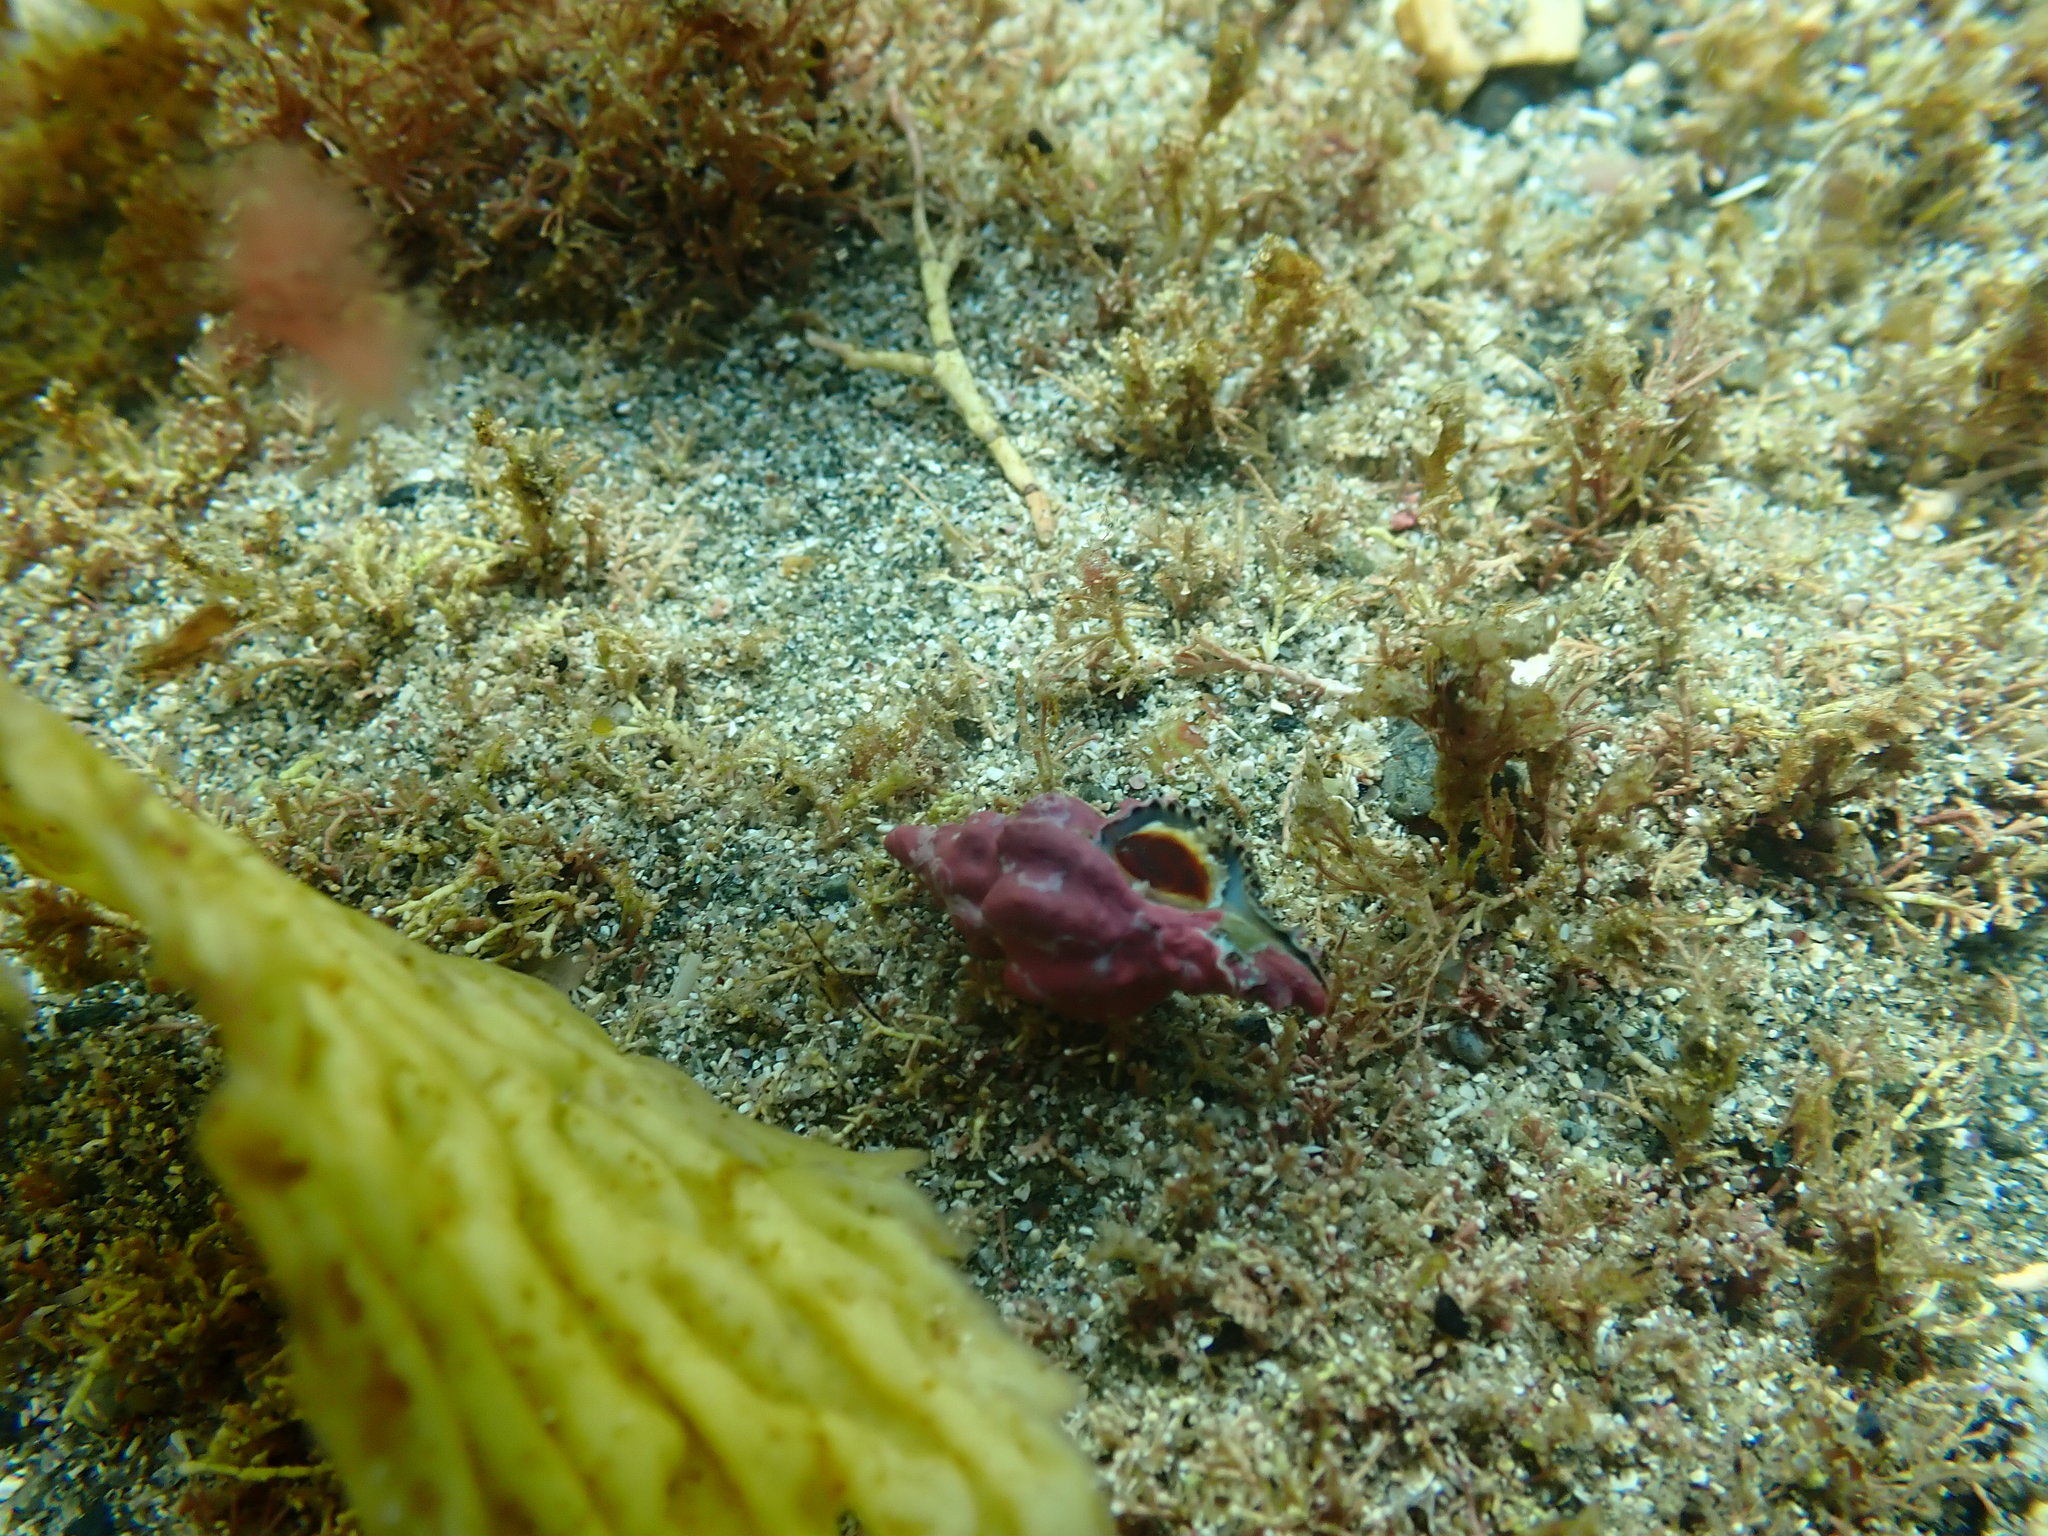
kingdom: Animalia
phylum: Mollusca
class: Gastropoda
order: Neogastropoda
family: Muricidae
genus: Murexsul
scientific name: Murexsul octogonus
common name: Octagon murex
